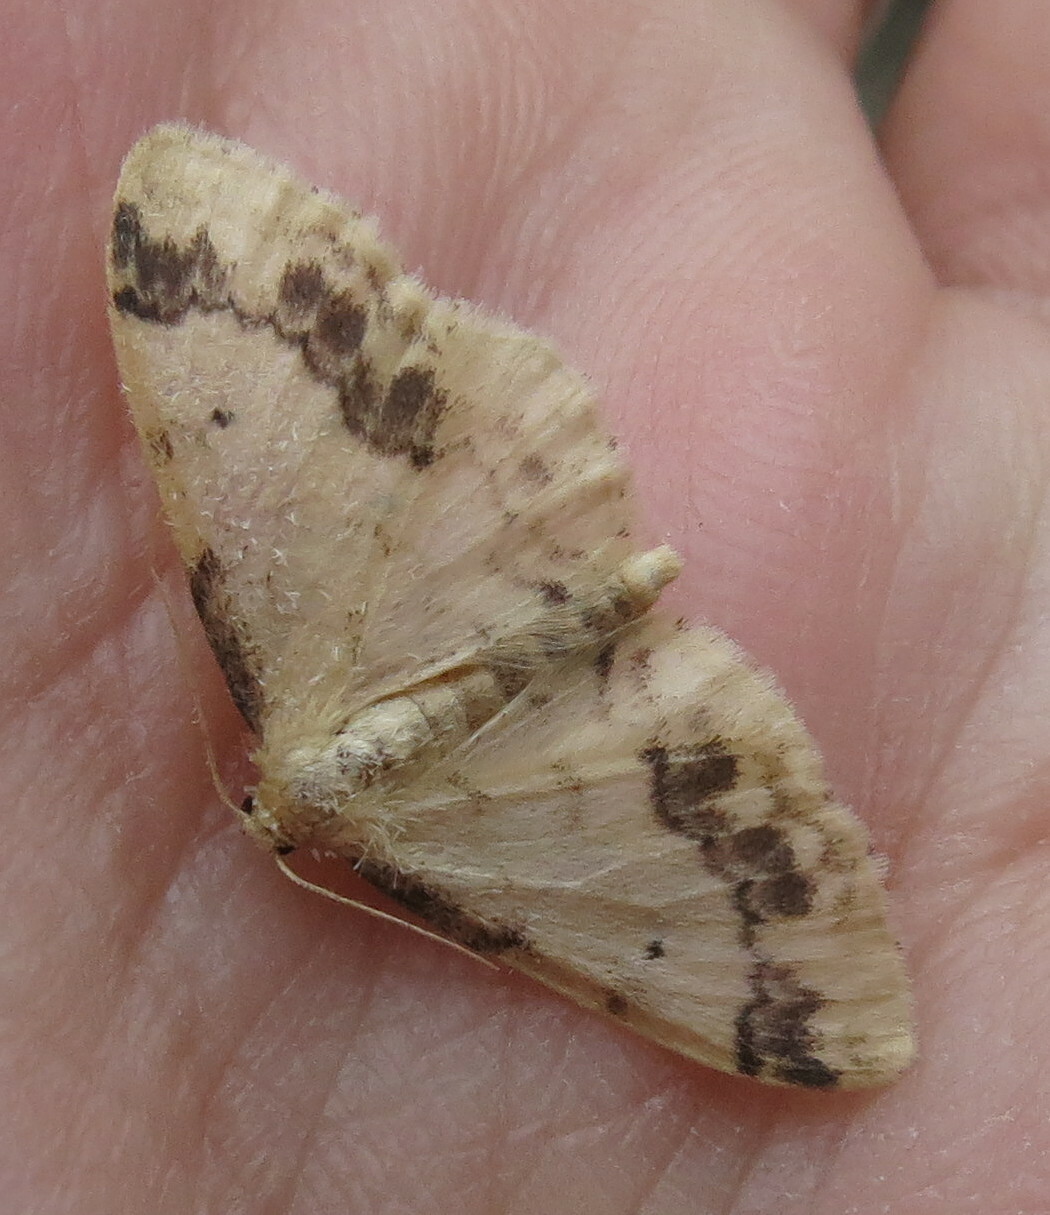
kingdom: Animalia
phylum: Arthropoda
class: Insecta
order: Lepidoptera
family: Geometridae
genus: Idaea
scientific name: Idaea trigeminata
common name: Treble brown spot
